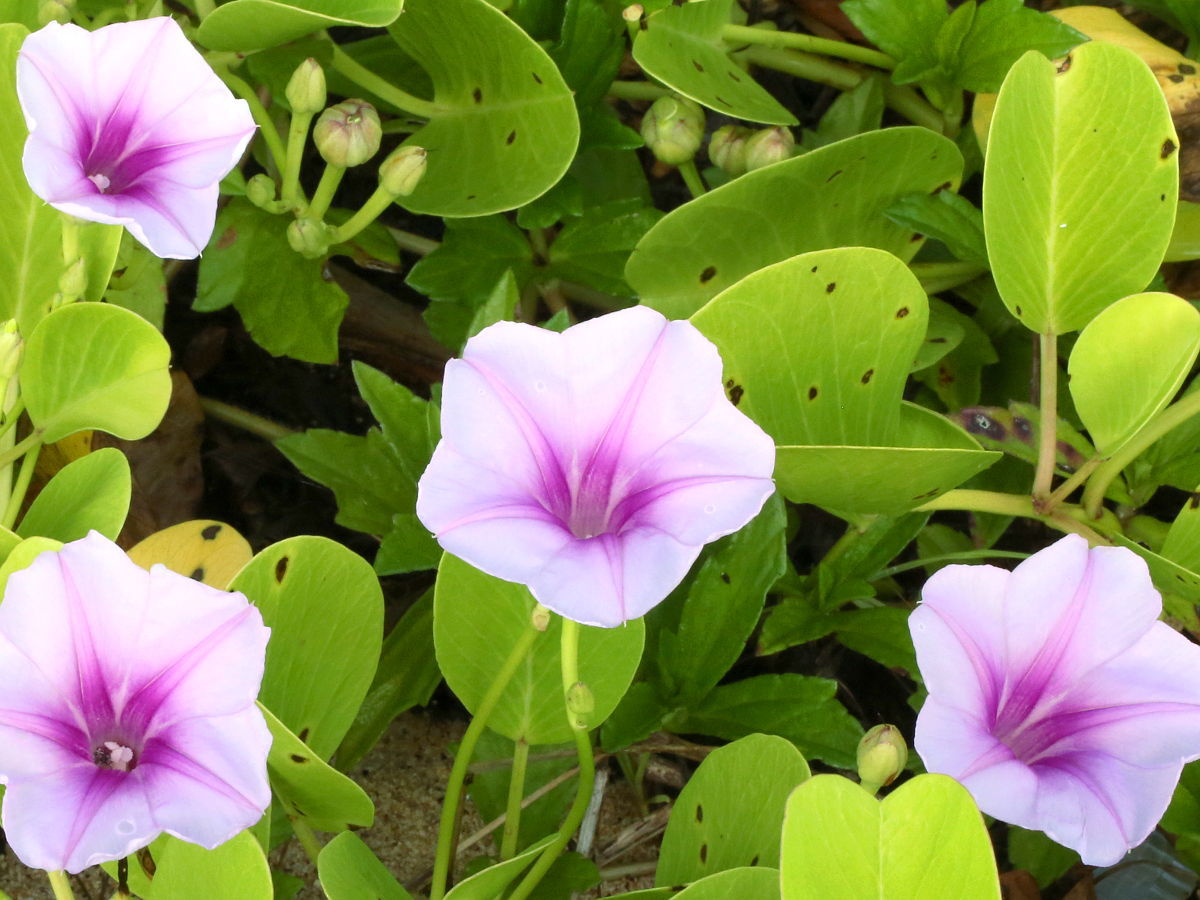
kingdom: Plantae
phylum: Tracheophyta
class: Magnoliopsida
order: Solanales
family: Convolvulaceae
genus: Ipomoea
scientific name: Ipomoea pes-caprae
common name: Beach morning glory
